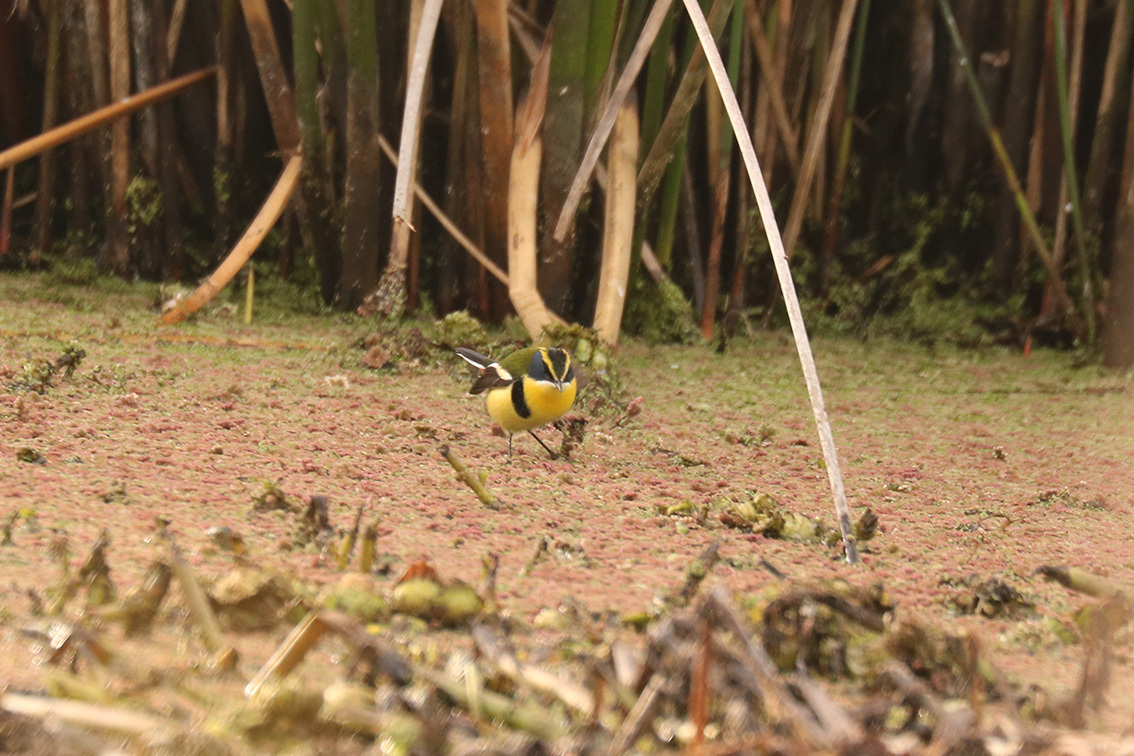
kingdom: Animalia
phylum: Chordata
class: Aves
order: Passeriformes
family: Tyrannidae
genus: Tachuris
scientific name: Tachuris rubrigastra
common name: Many-colored rush tyrant
